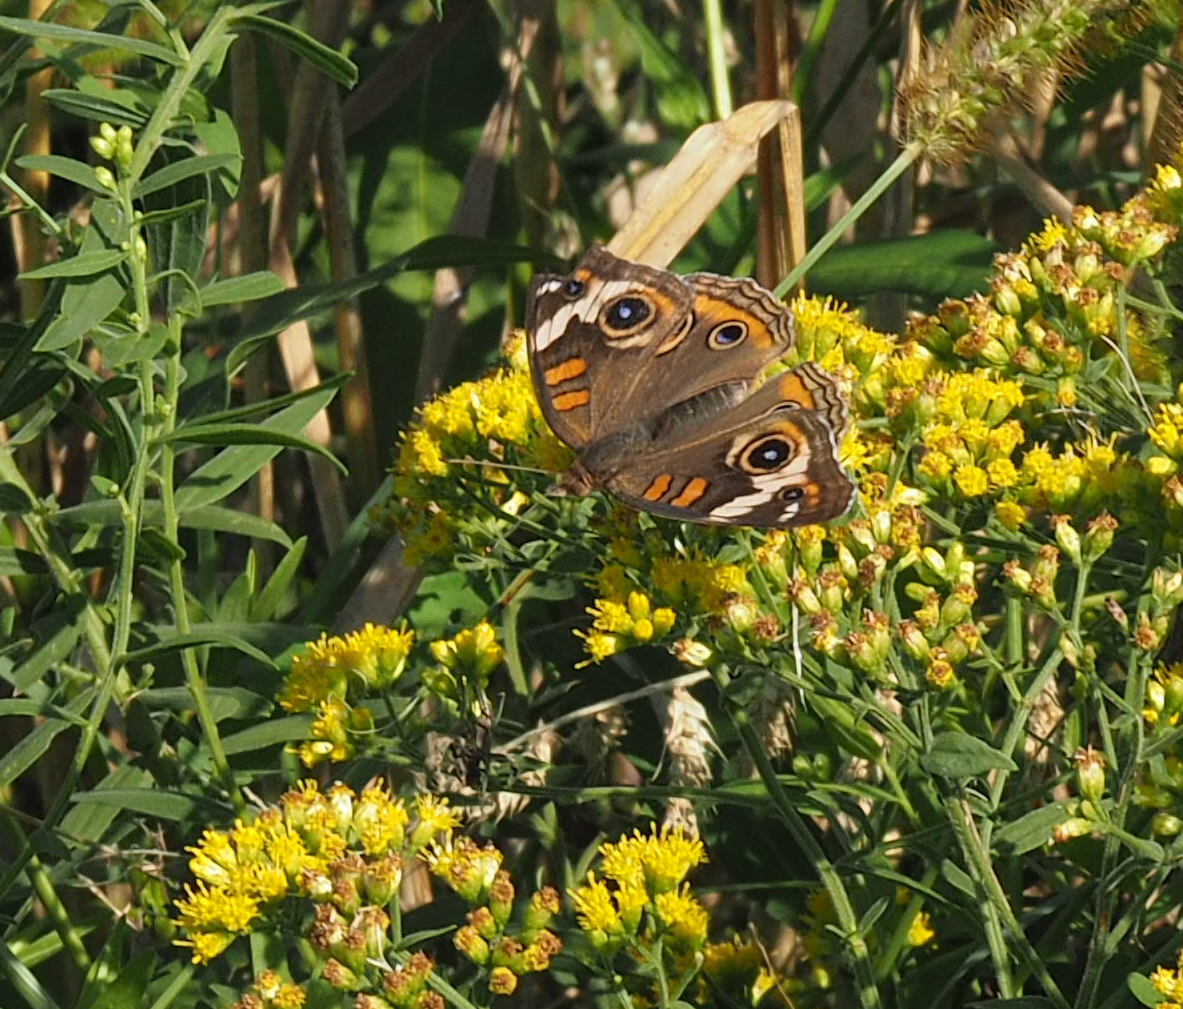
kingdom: Animalia
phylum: Arthropoda
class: Insecta
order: Lepidoptera
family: Nymphalidae
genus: Junonia
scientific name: Junonia coenia
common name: Common buckeye
